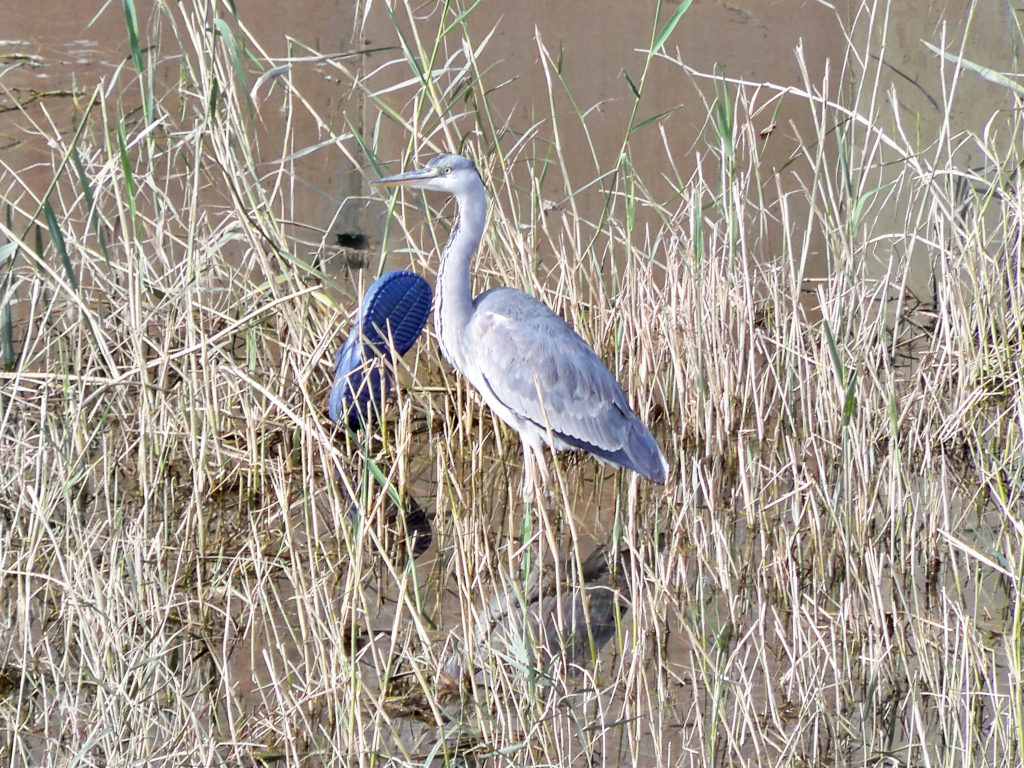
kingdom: Animalia
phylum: Chordata
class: Aves
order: Pelecaniformes
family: Ardeidae
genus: Ardea
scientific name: Ardea cinerea
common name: Grey heron
